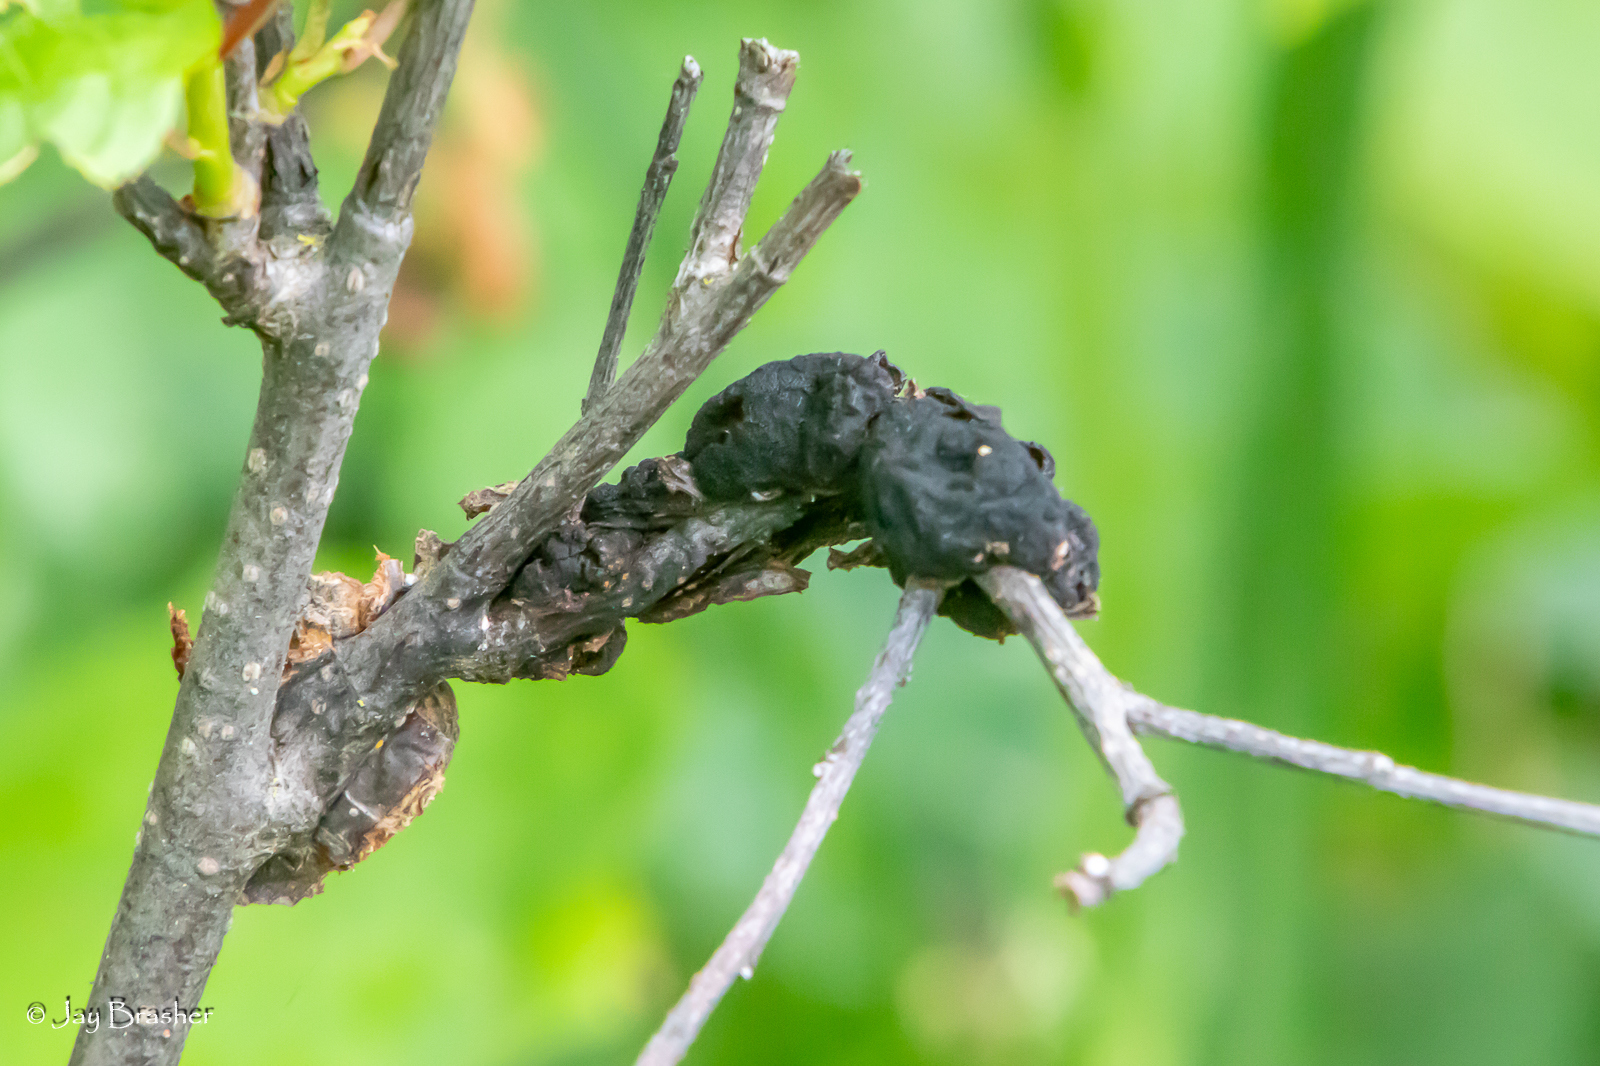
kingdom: Fungi
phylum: Ascomycota
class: Dothideomycetes
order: Venturiales
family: Venturiaceae
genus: Apiosporina
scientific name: Apiosporina morbosa
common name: Black knot
